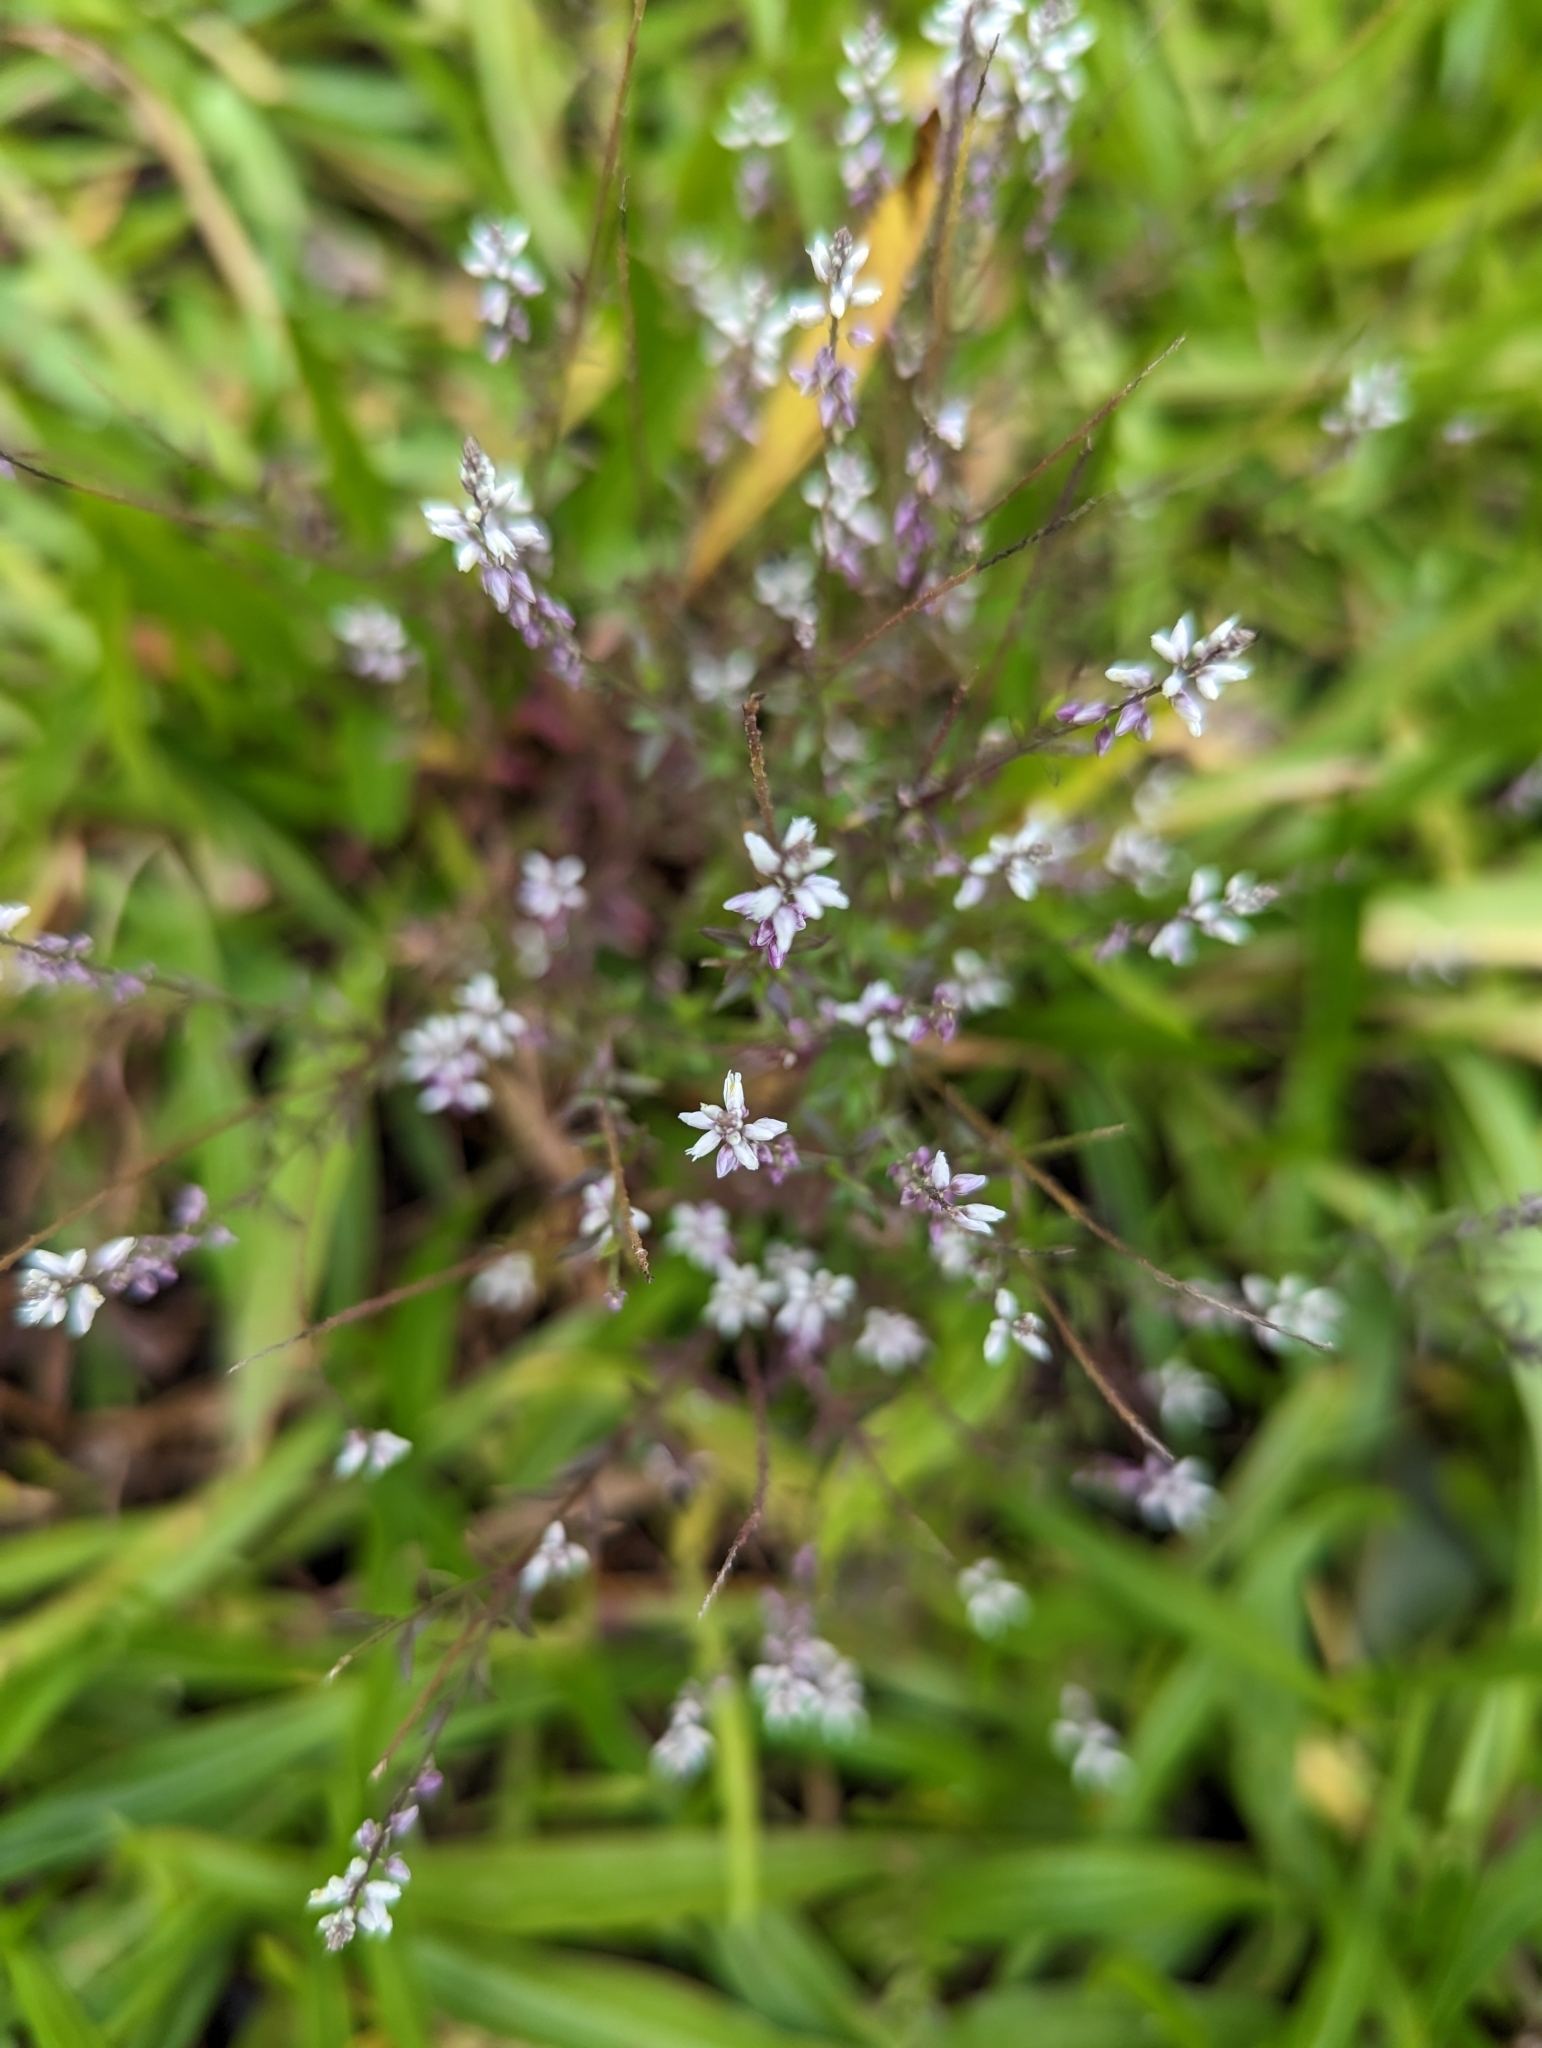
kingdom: Plantae
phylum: Tracheophyta
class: Magnoliopsida
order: Fabales
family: Polygalaceae
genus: Polygala
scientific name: Polygala paniculata
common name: Orosne
